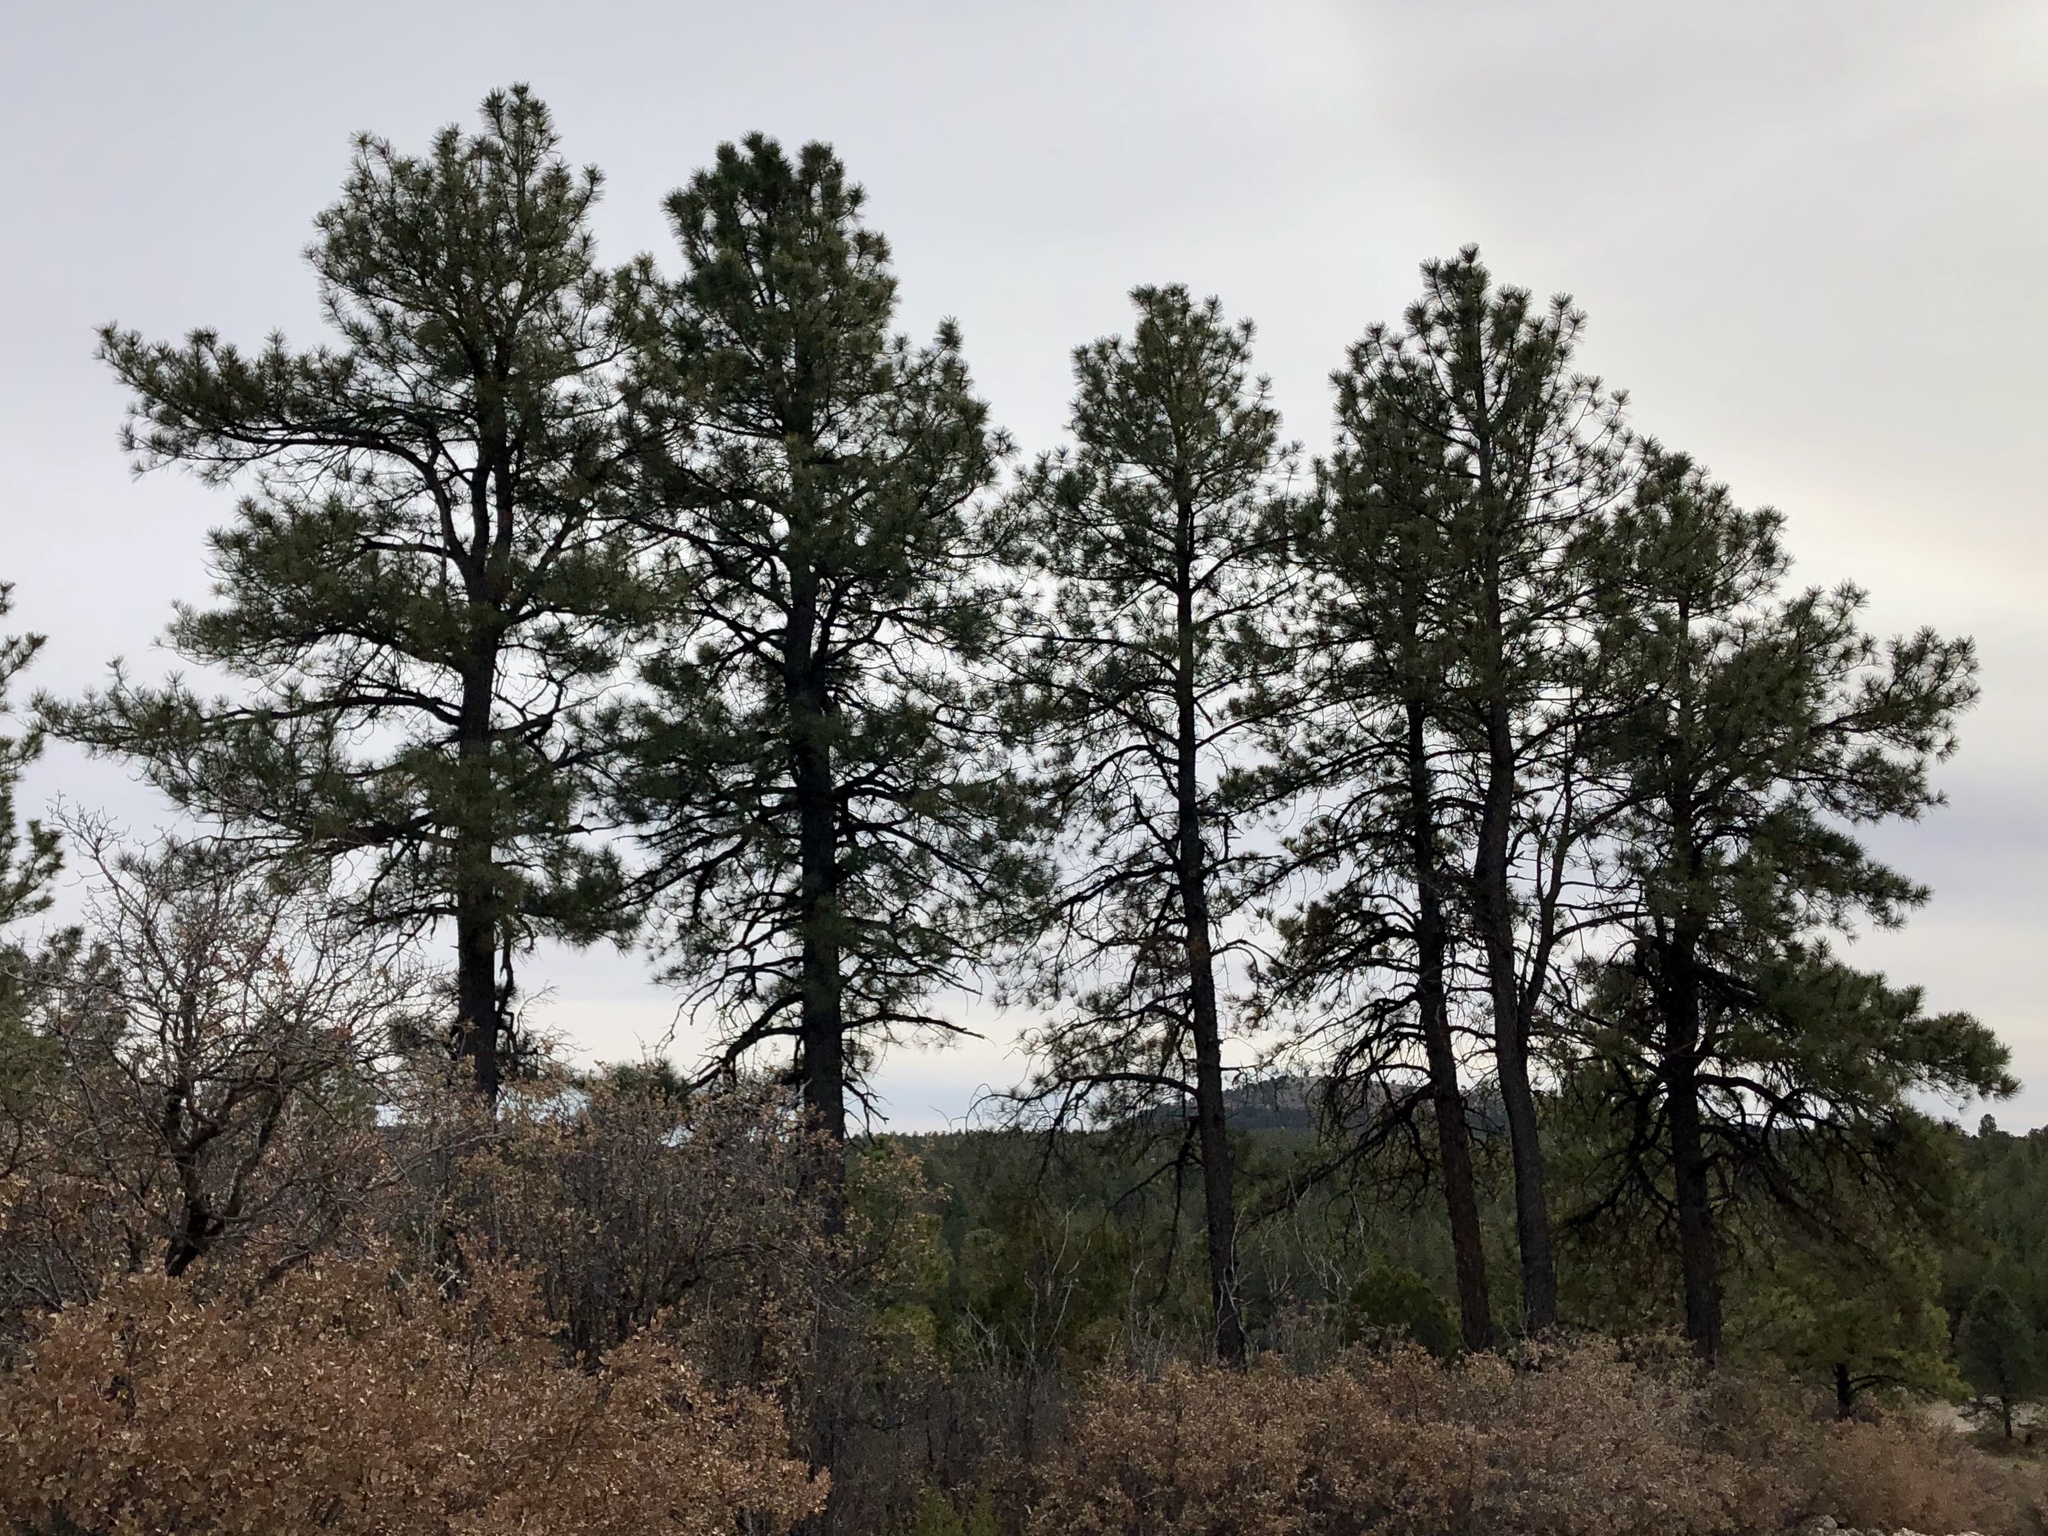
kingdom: Plantae
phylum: Tracheophyta
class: Pinopsida
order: Pinales
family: Pinaceae
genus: Pinus
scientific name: Pinus ponderosa
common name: Western yellow-pine
